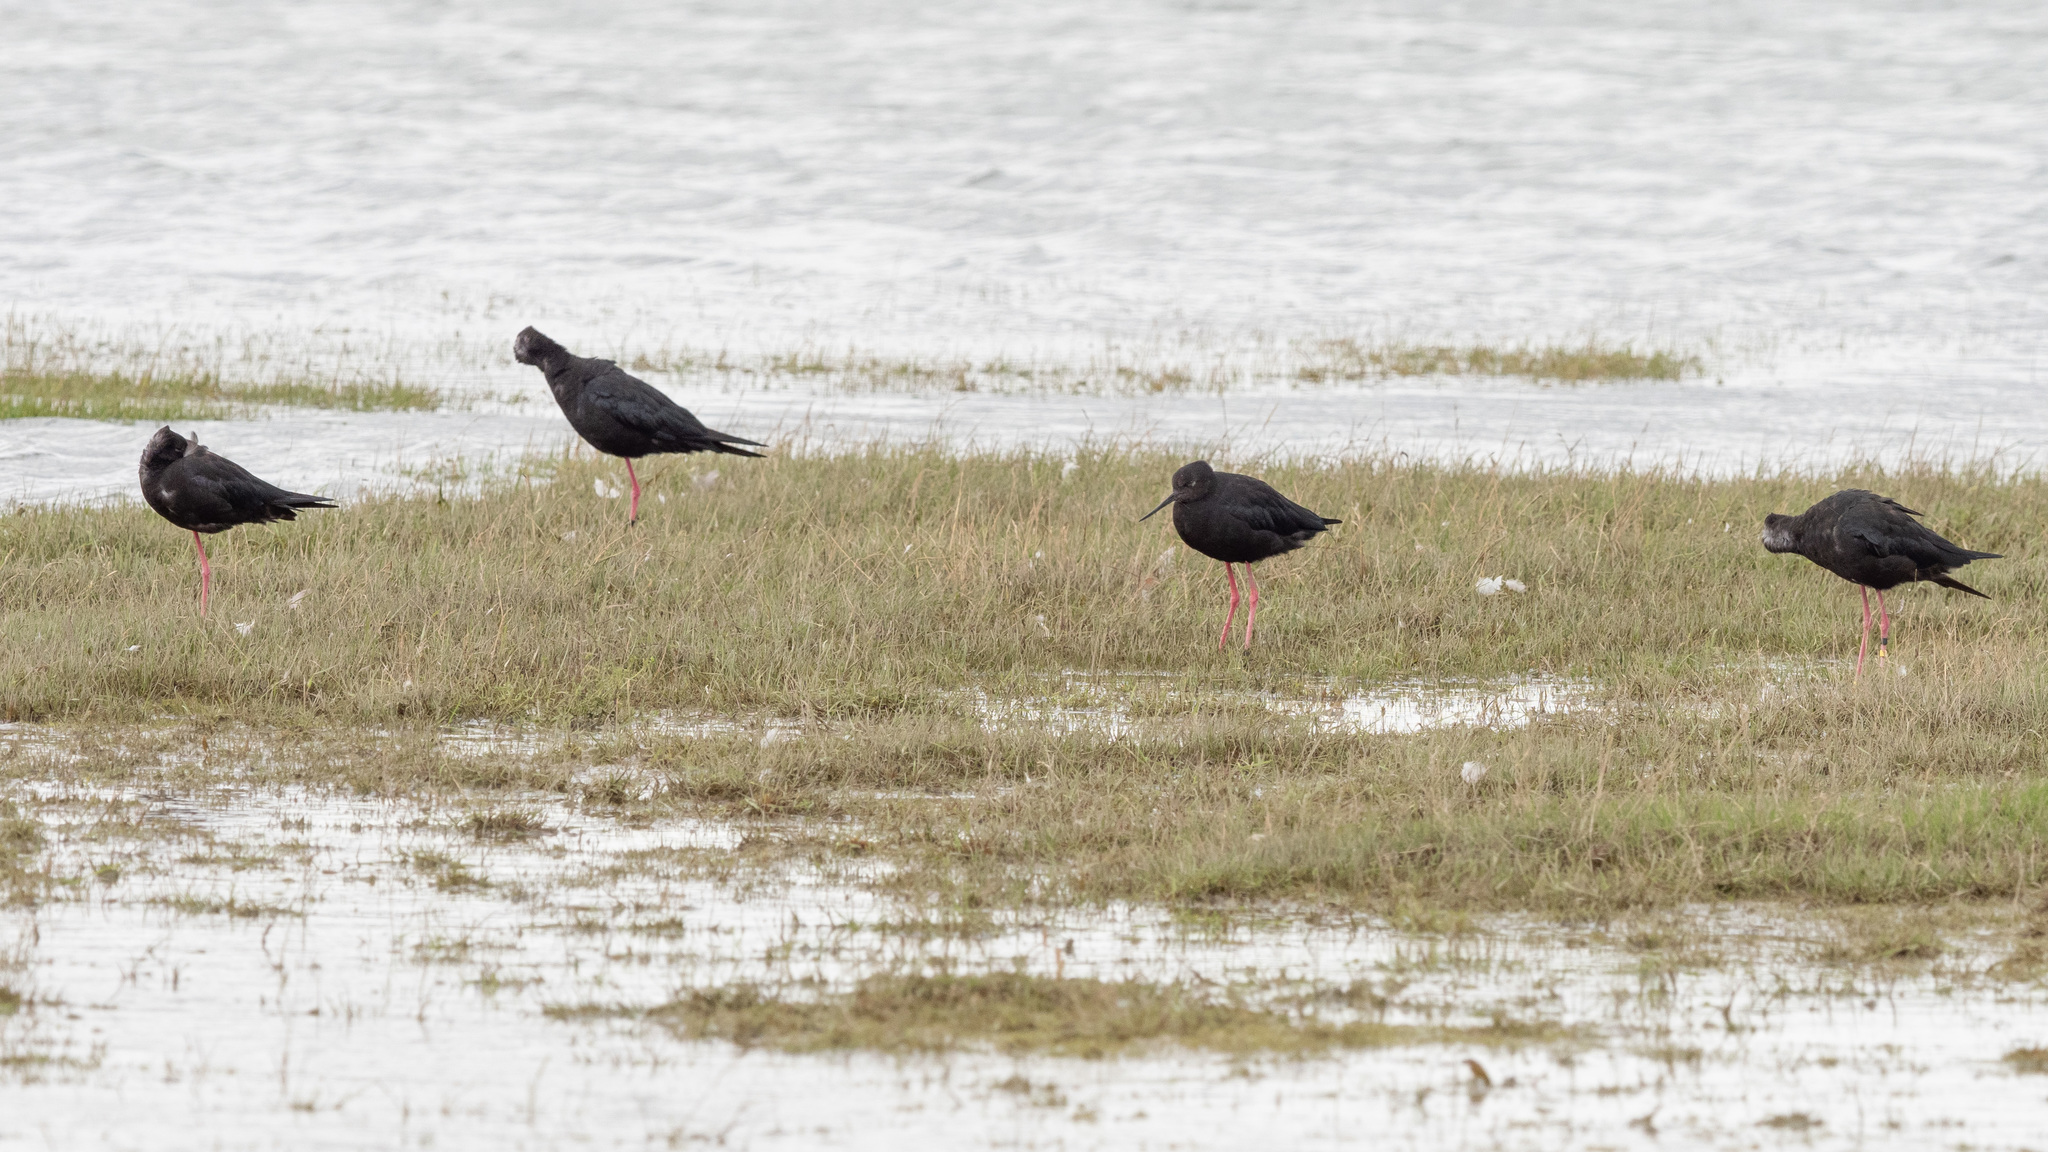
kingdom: Animalia
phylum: Chordata
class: Aves
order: Charadriiformes
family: Recurvirostridae
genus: Himantopus
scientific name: Himantopus novaezelandiae
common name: Black stilt
